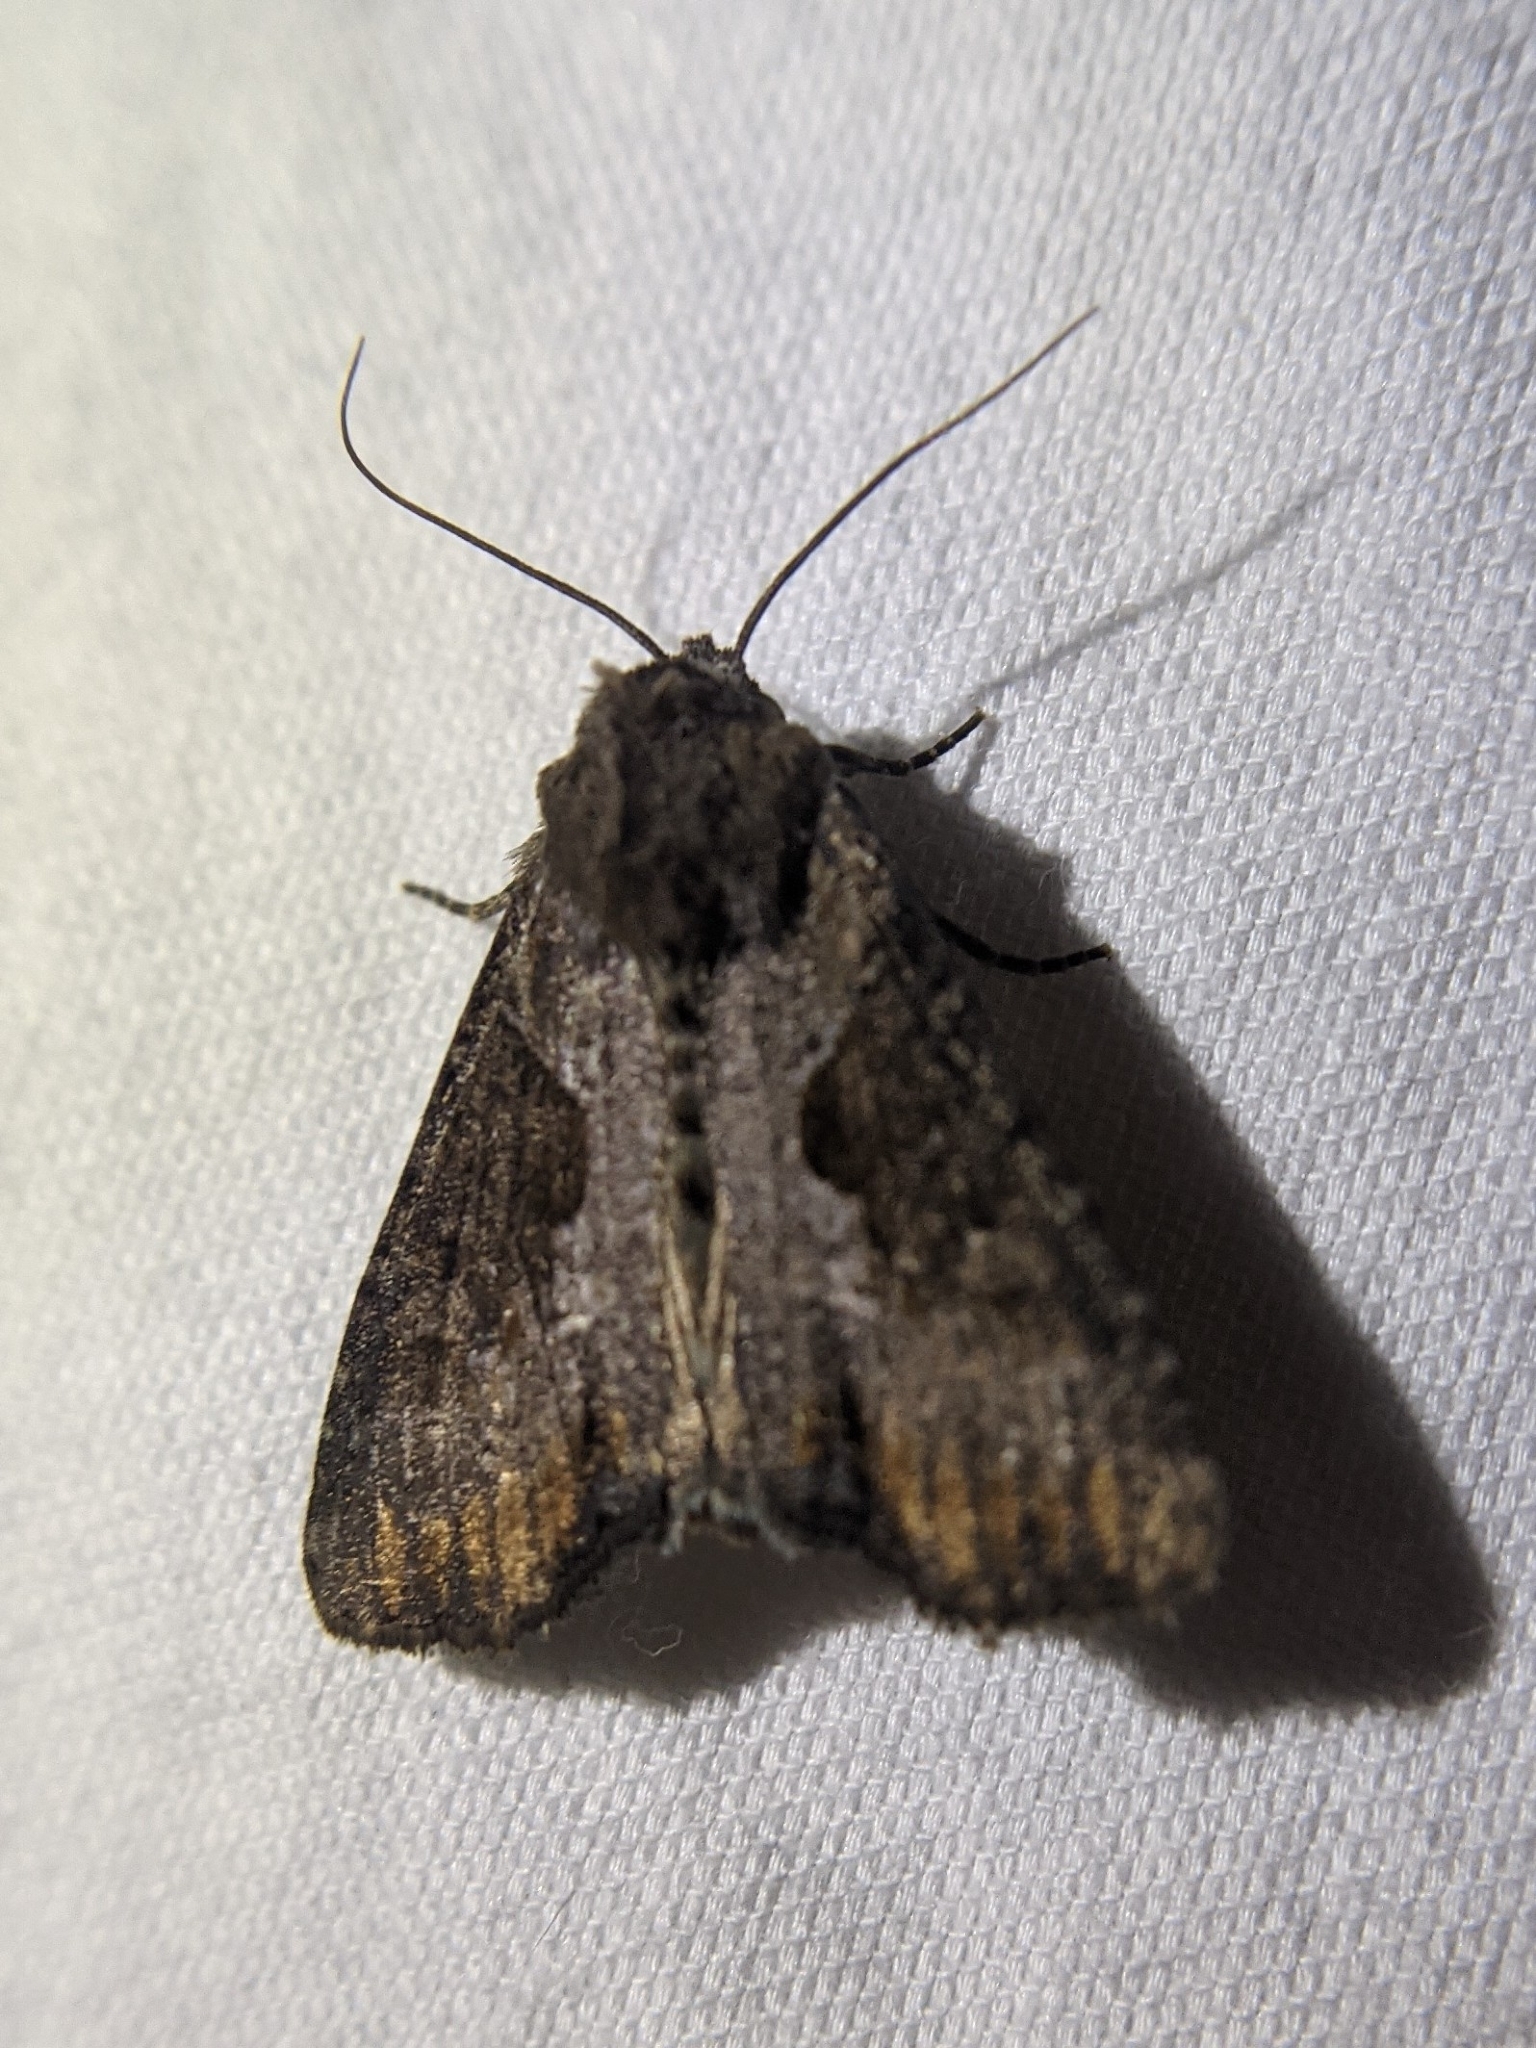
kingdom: Animalia
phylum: Arthropoda
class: Insecta
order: Lepidoptera
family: Noctuidae
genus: Lateroligia
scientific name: Lateroligia ophiogramma
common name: Double lobed
